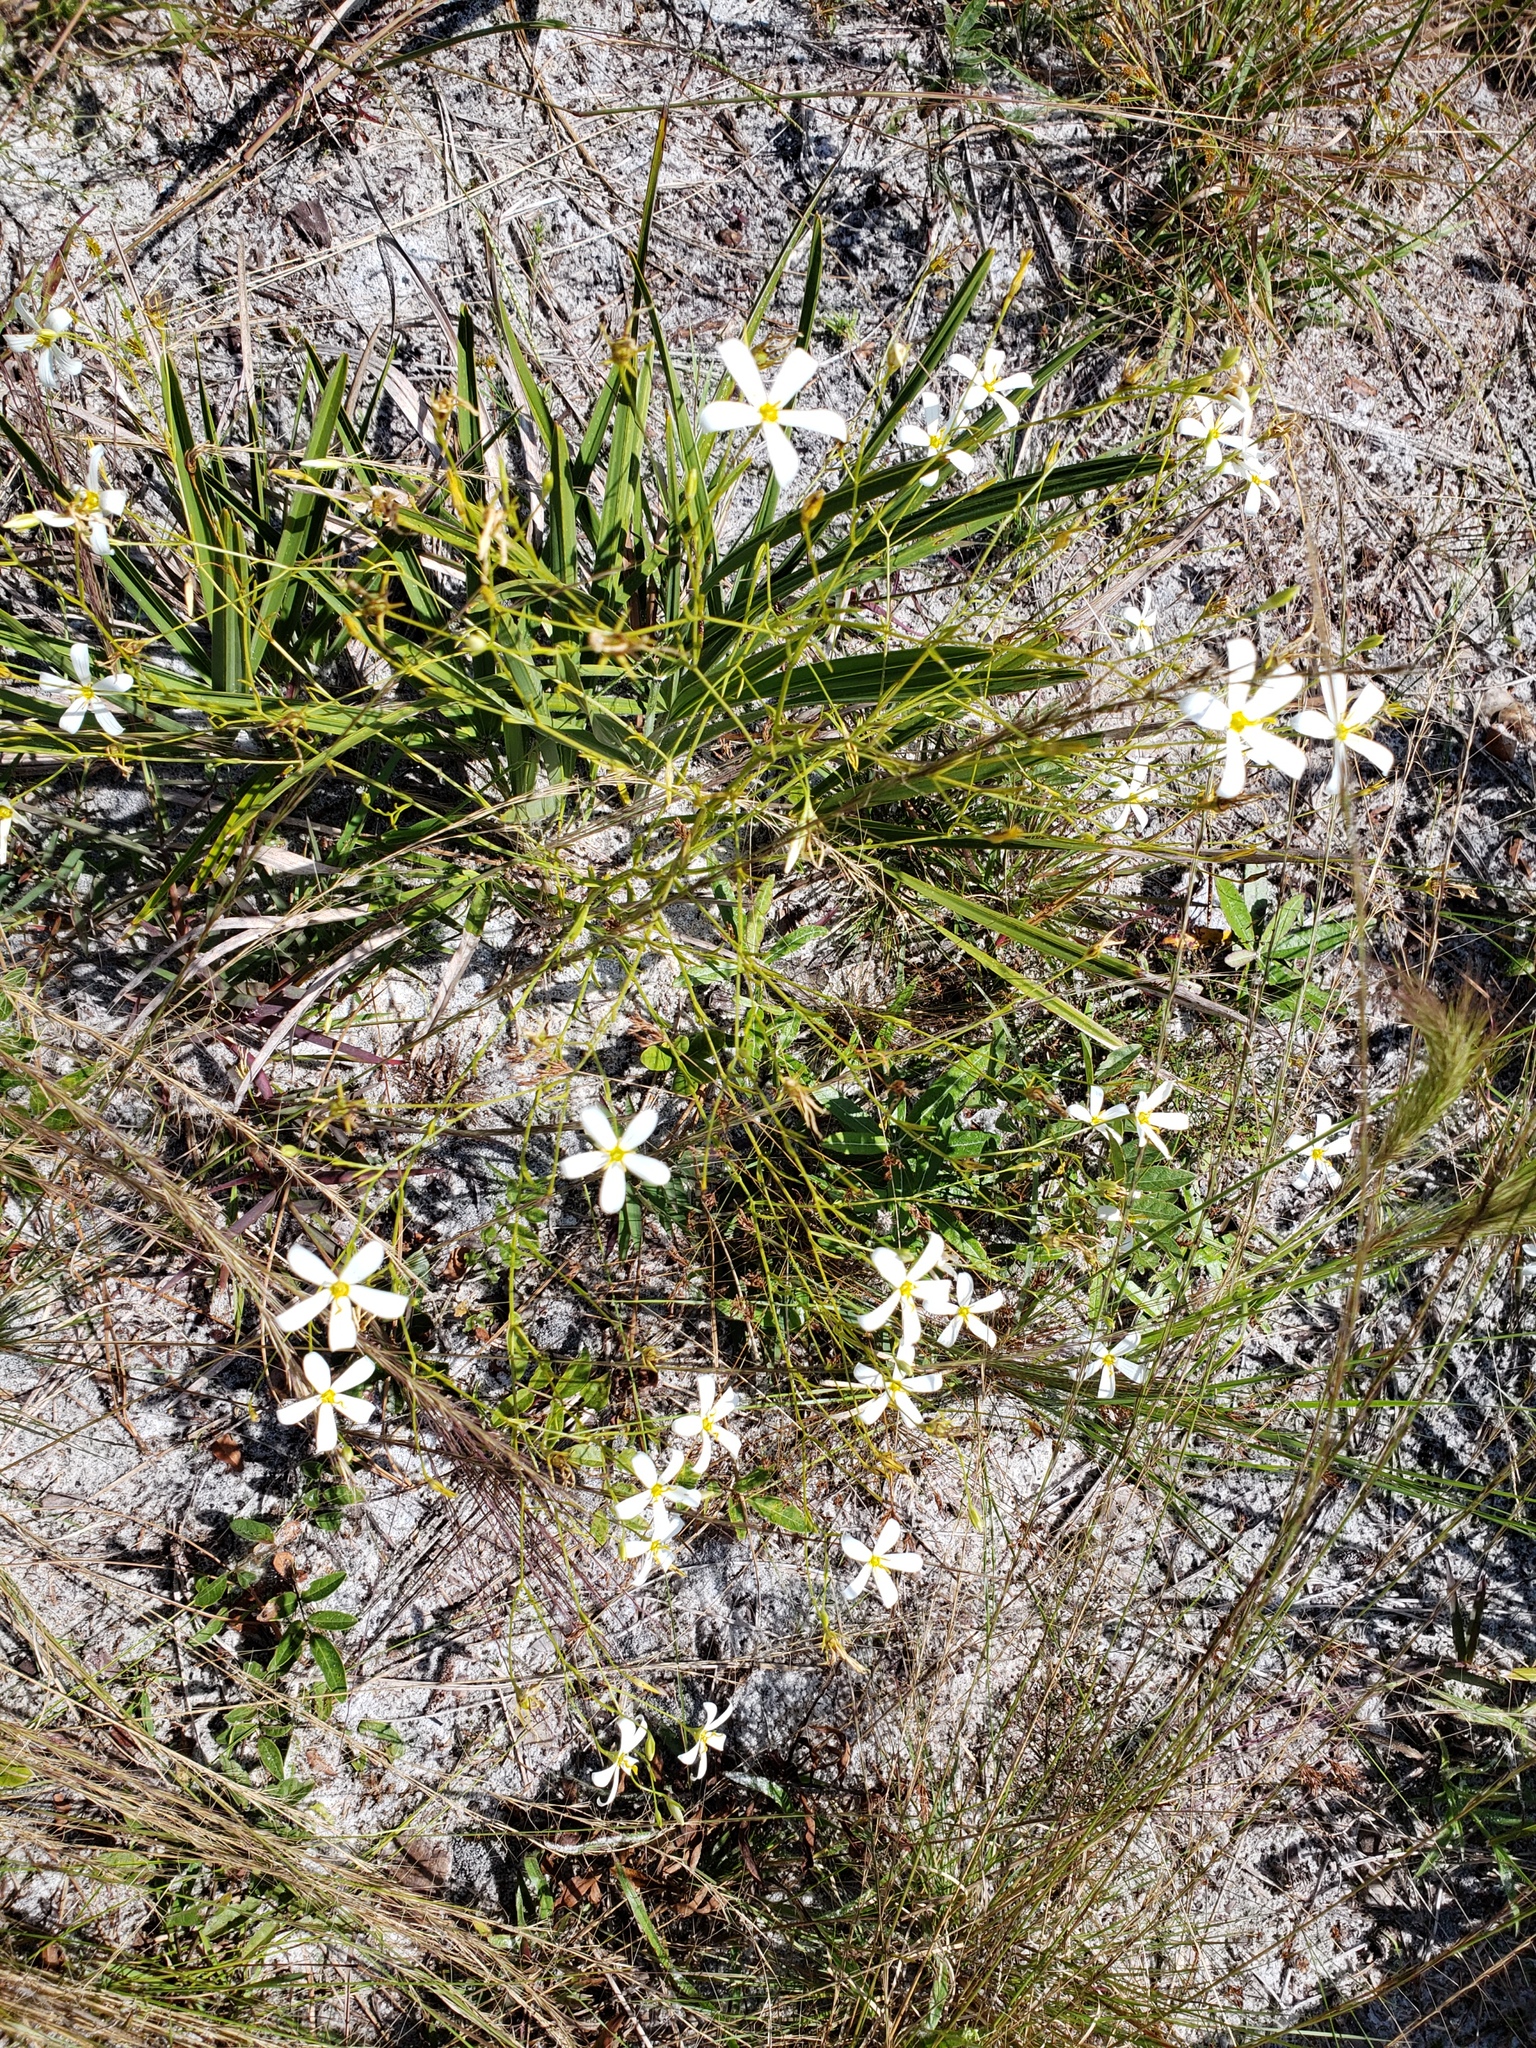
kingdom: Plantae
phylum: Tracheophyta
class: Magnoliopsida
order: Gentianales
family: Gentianaceae
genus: Sabatia
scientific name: Sabatia brevifolia
